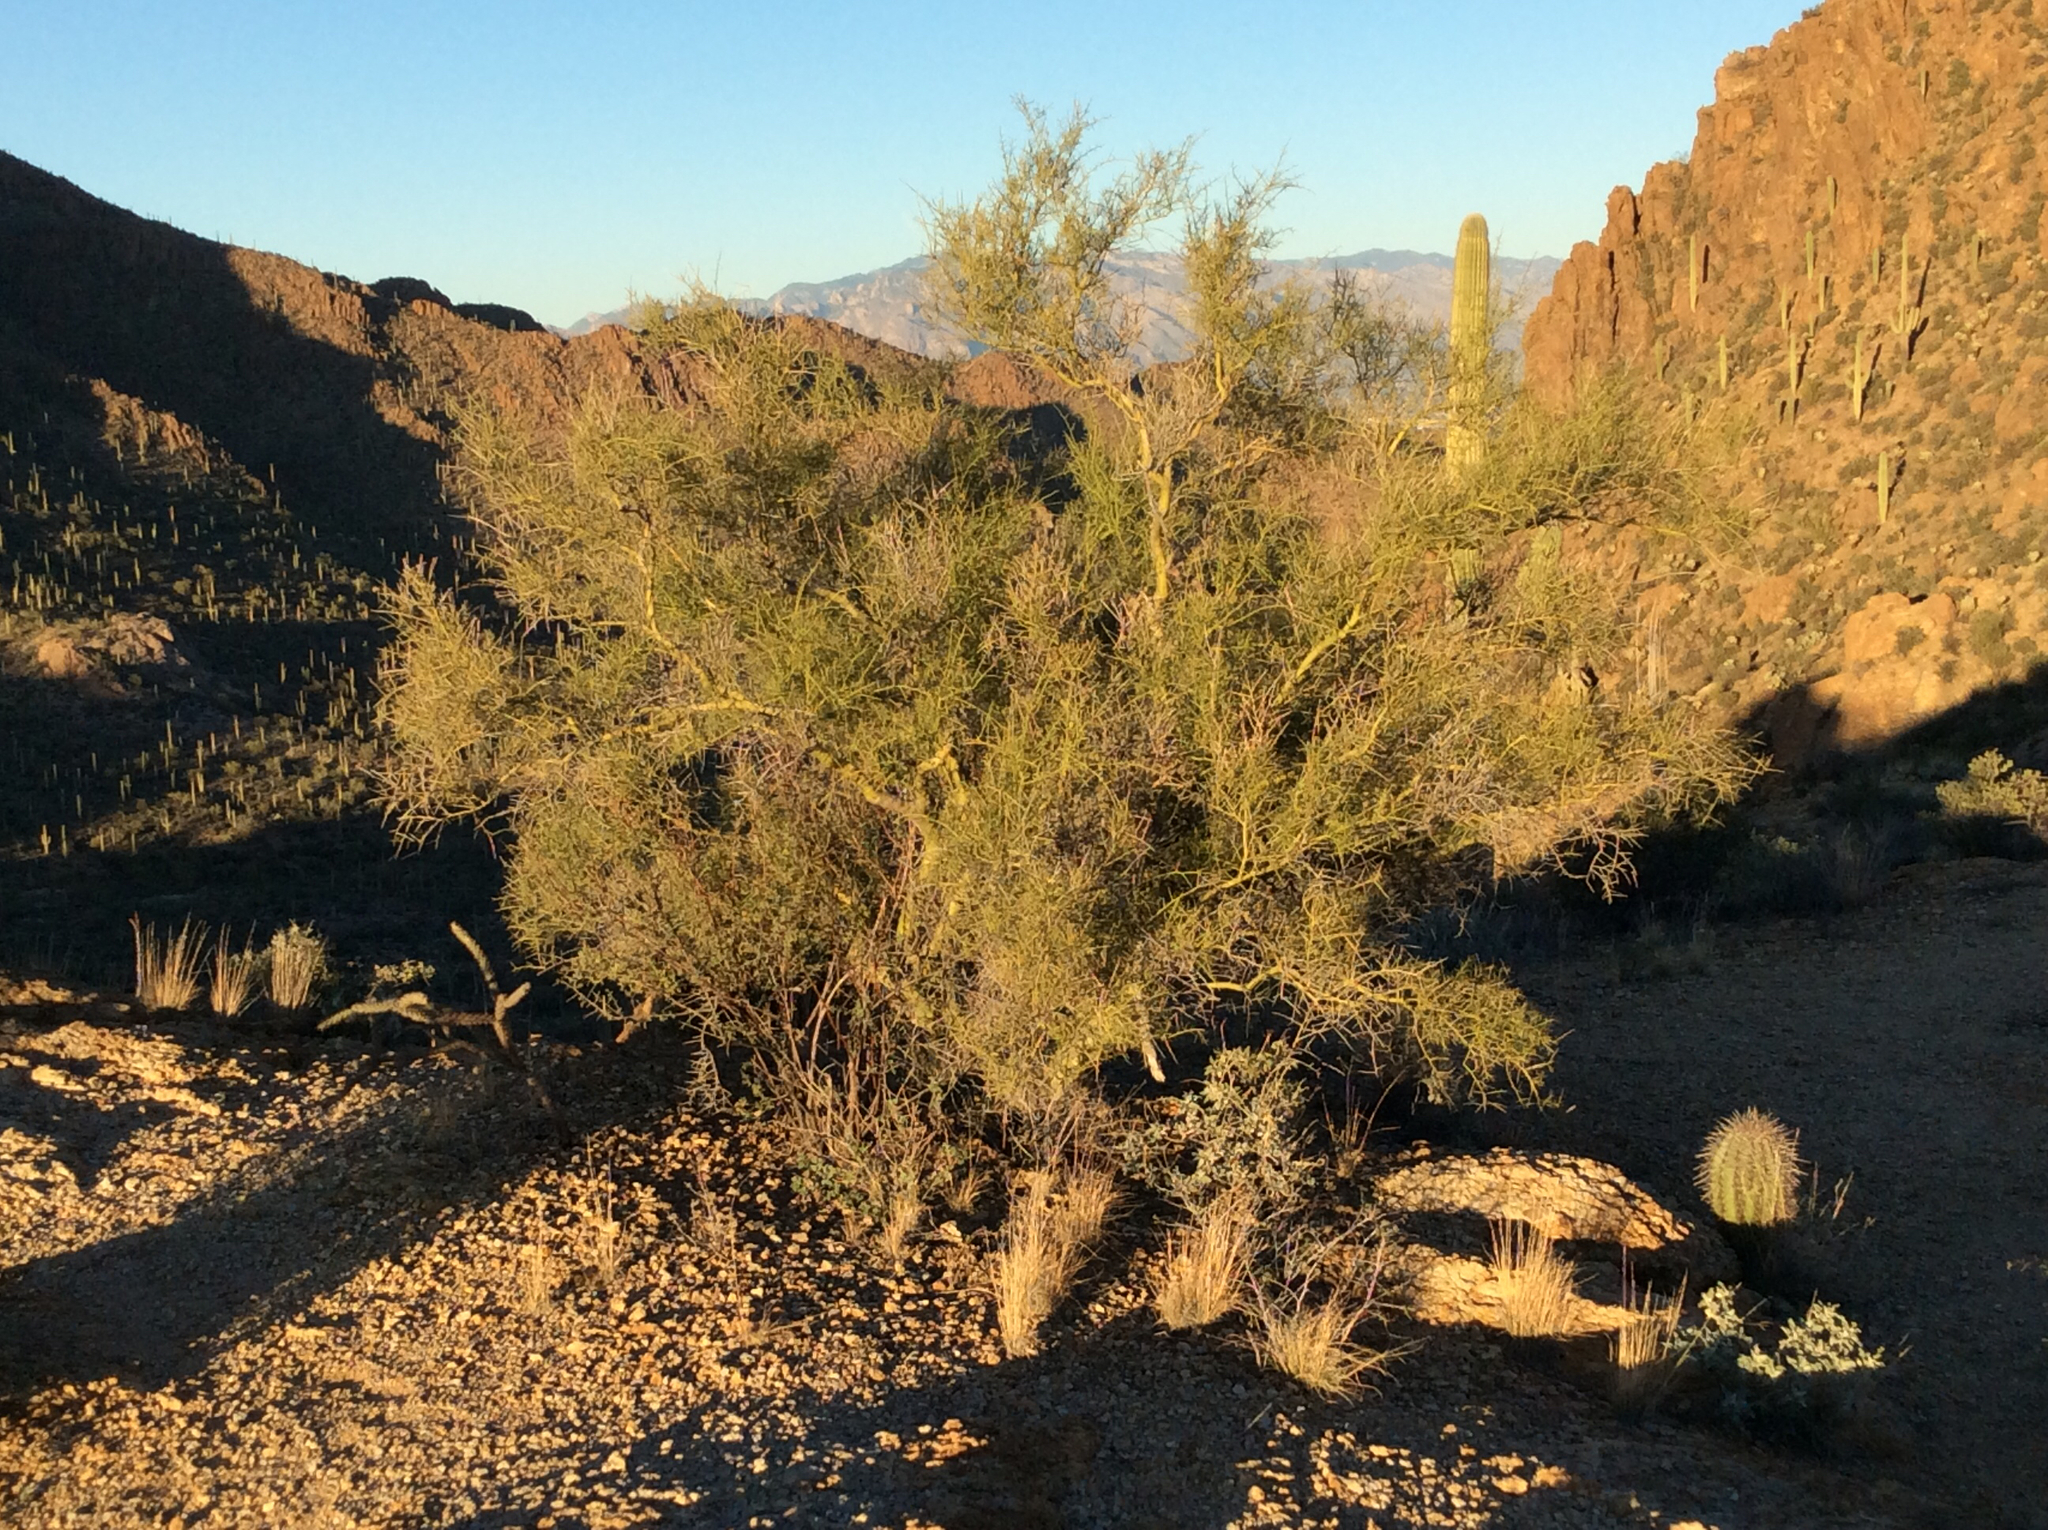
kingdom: Plantae
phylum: Tracheophyta
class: Magnoliopsida
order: Fabales
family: Fabaceae
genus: Parkinsonia
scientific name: Parkinsonia microphylla
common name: Yellow paloverde
